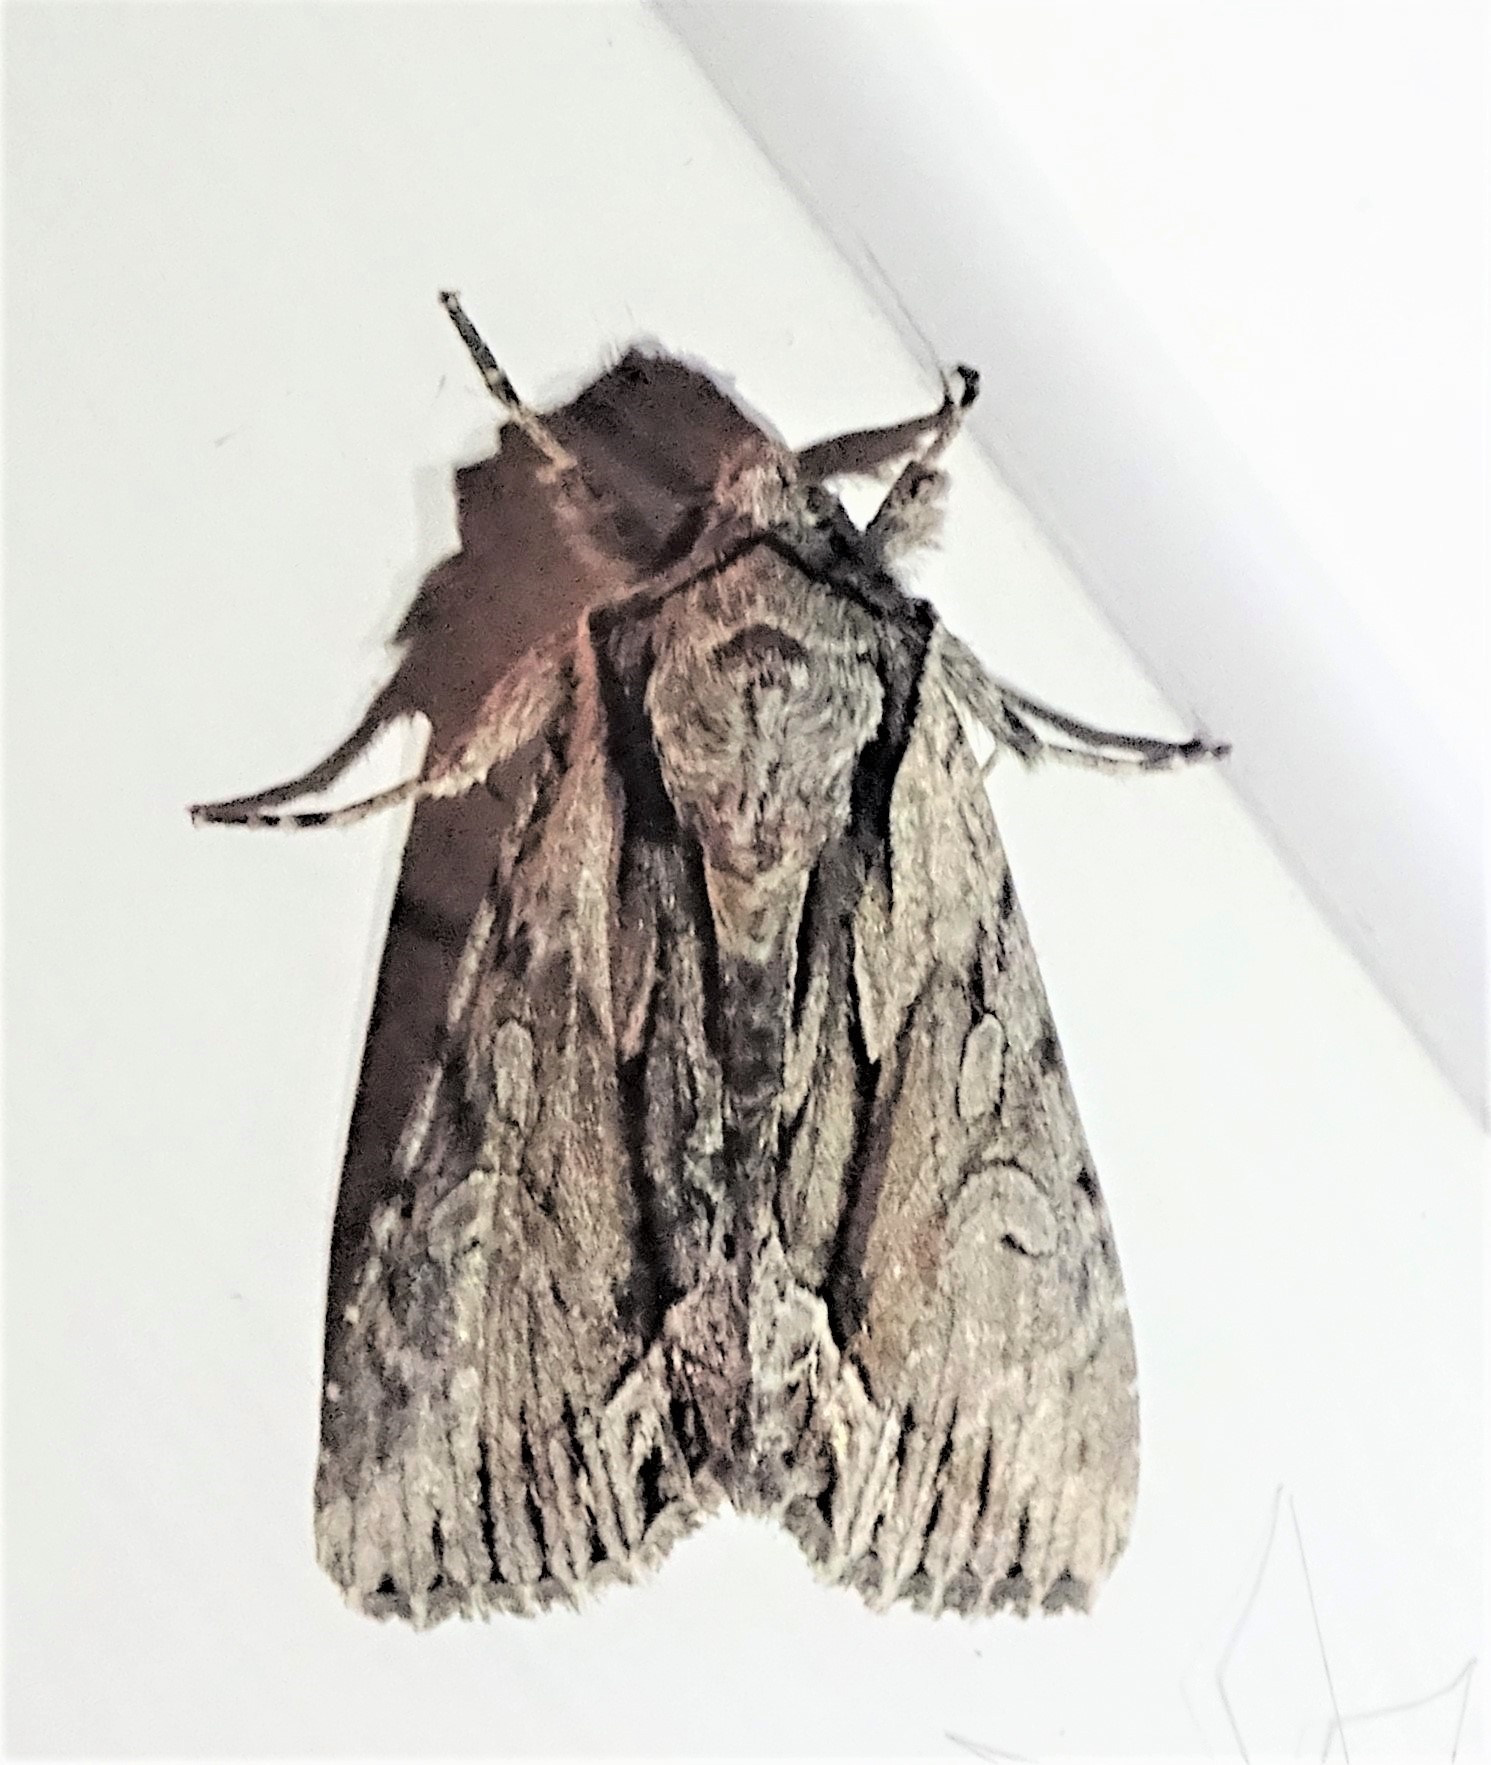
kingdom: Animalia
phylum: Arthropoda
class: Insecta
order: Lepidoptera
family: Noctuidae
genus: Hyppa
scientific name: Hyppa xylinoides
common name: Common hyppa moth
